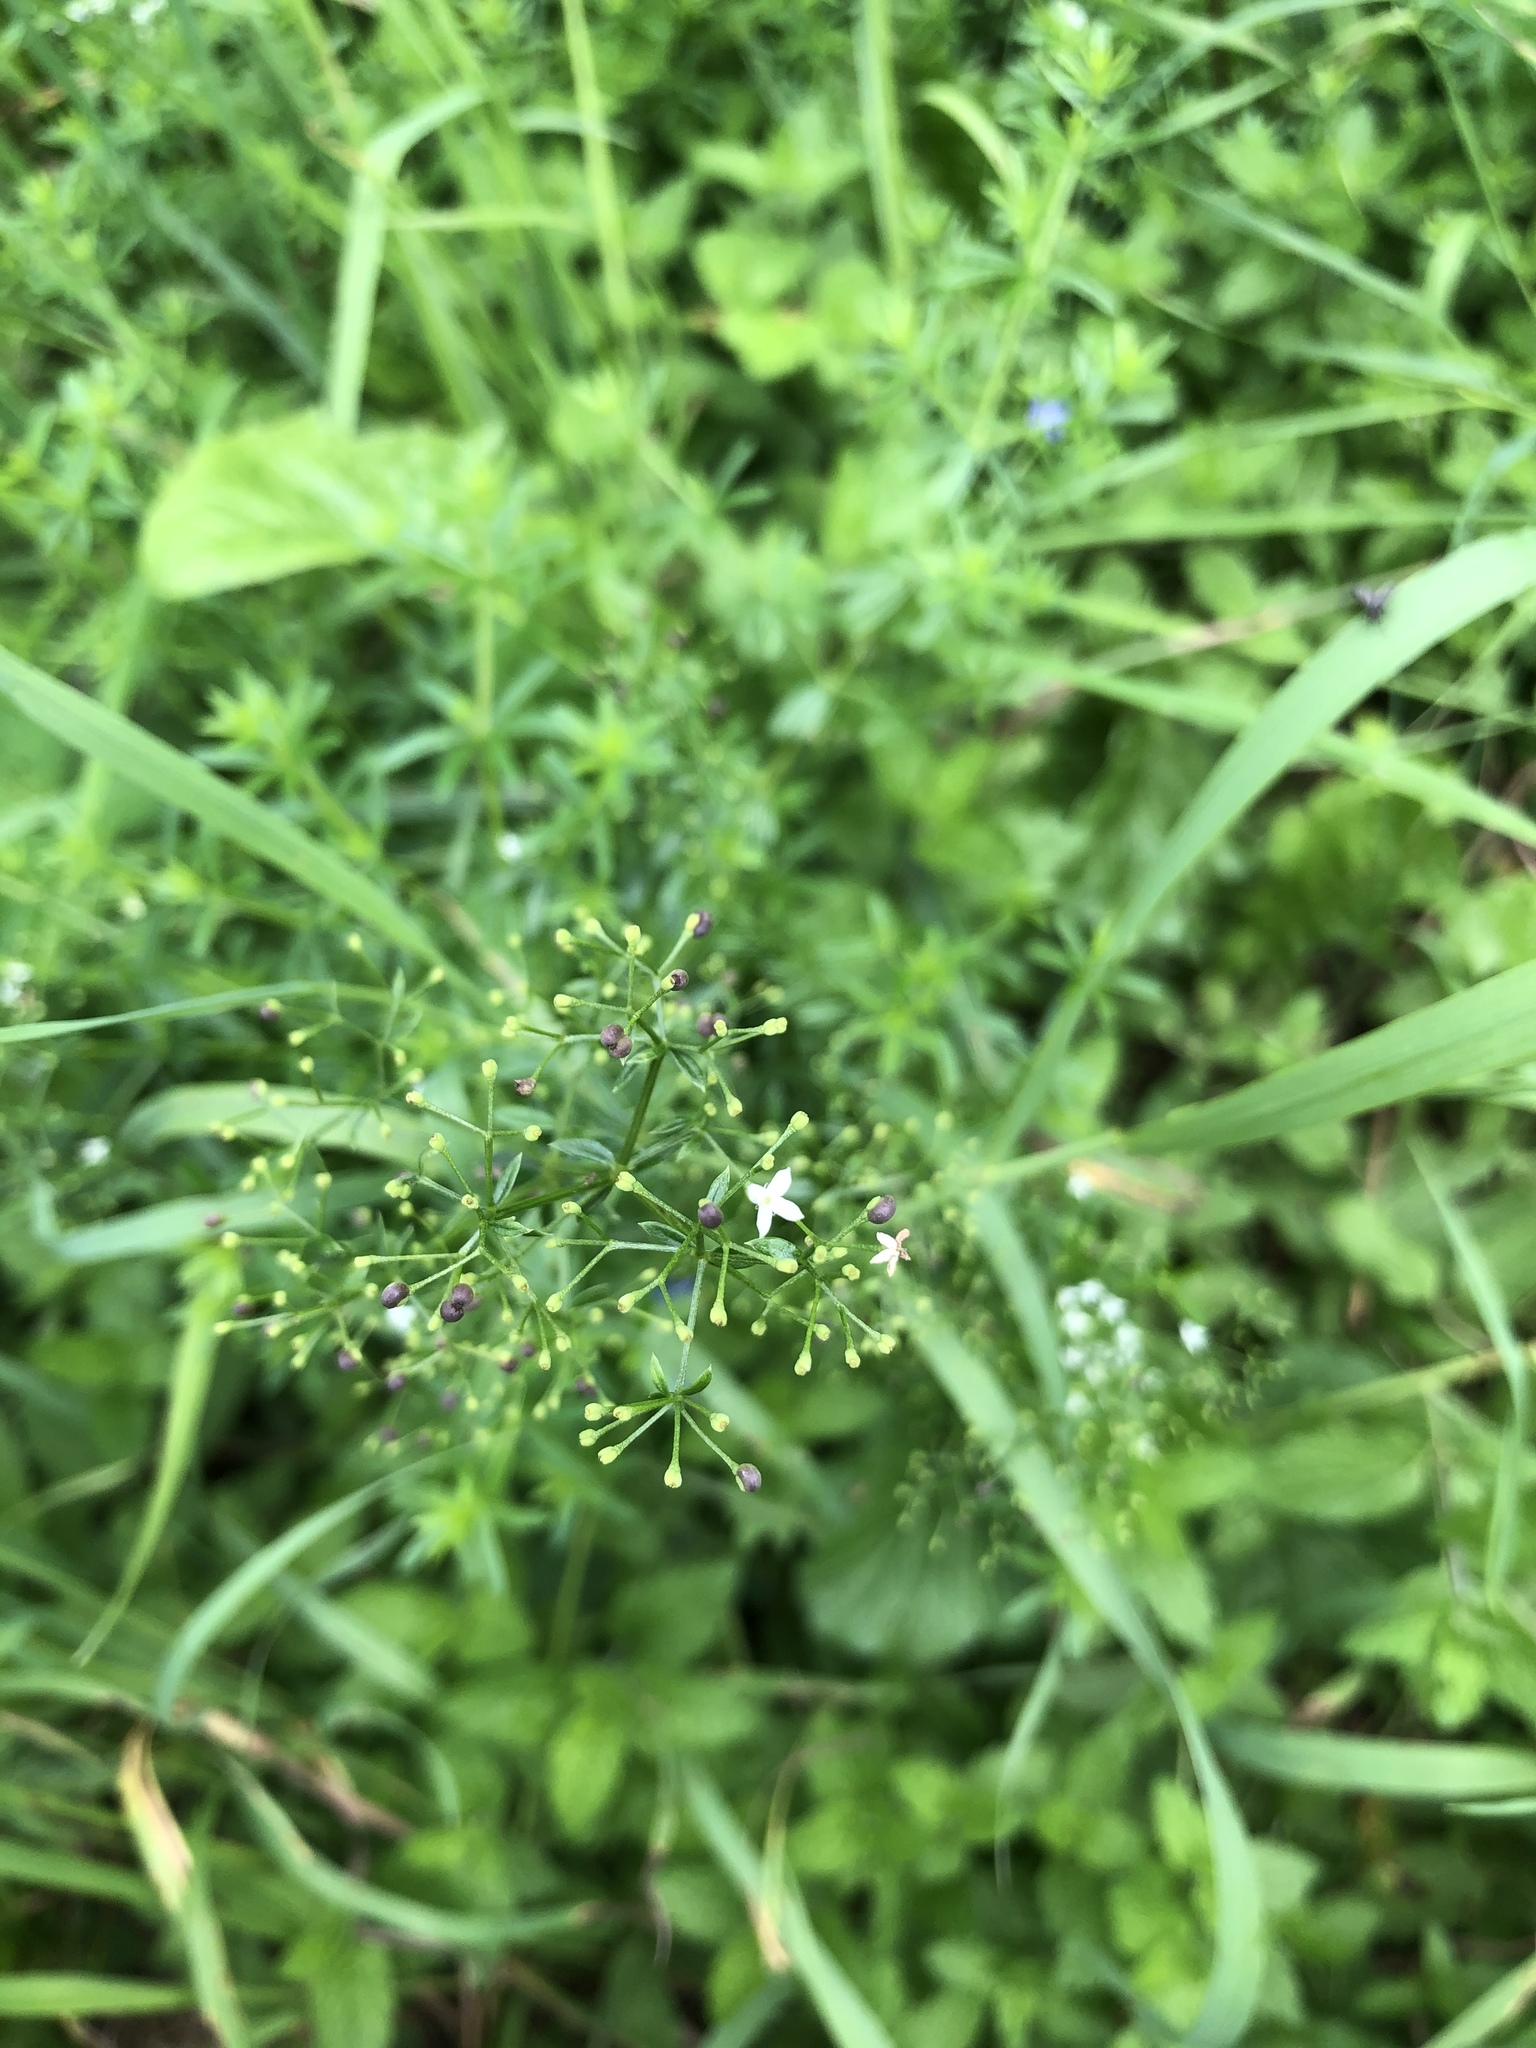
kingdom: Plantae
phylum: Tracheophyta
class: Magnoliopsida
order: Gentianales
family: Rubiaceae
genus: Galium
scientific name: Galium mollugo
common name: Hedge bedstraw
